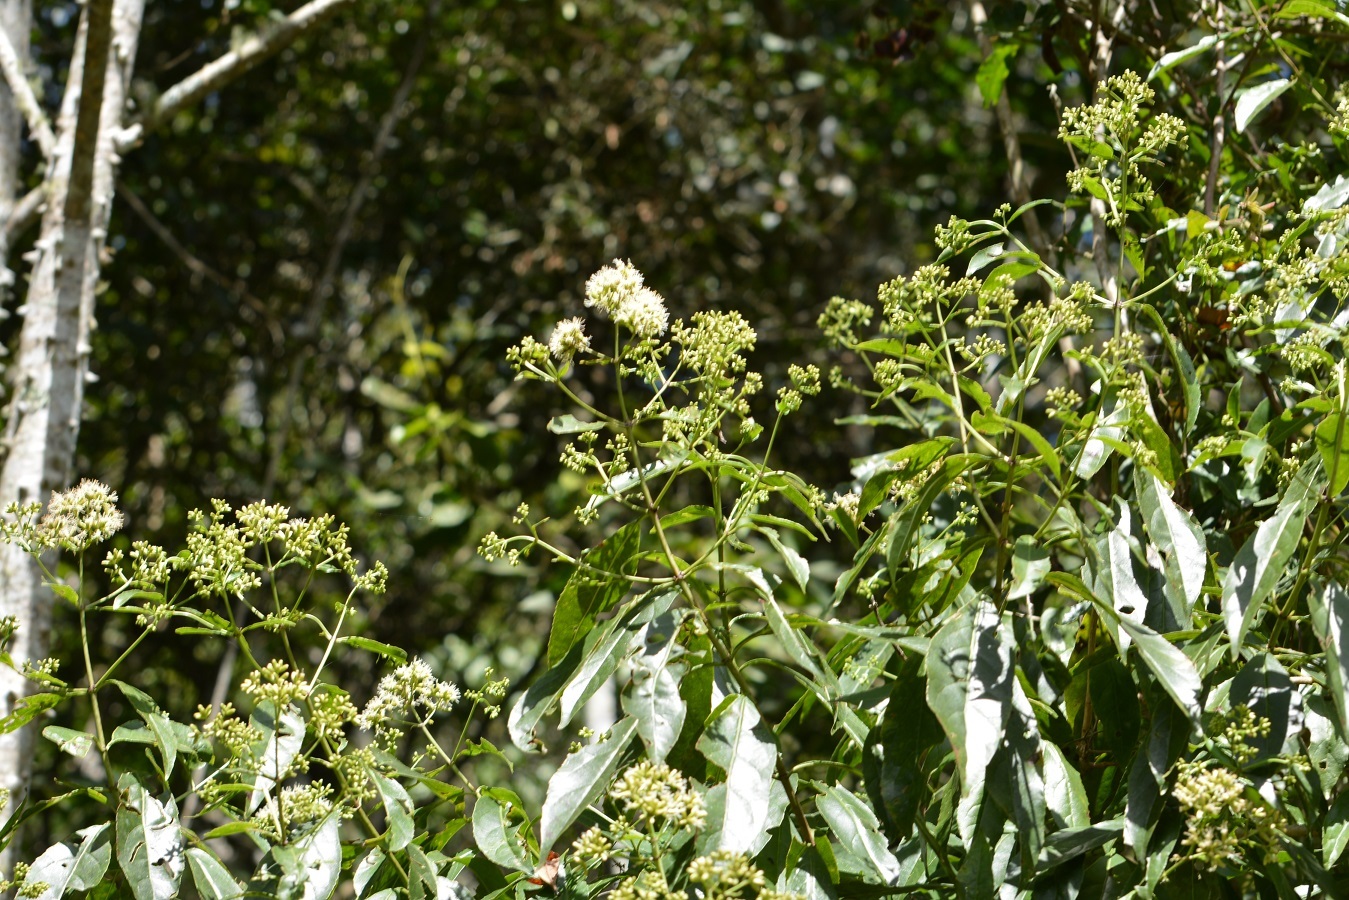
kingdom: Plantae
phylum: Tracheophyta
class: Magnoliopsida
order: Asterales
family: Asteraceae
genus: Critonia
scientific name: Critonia hospitalis
